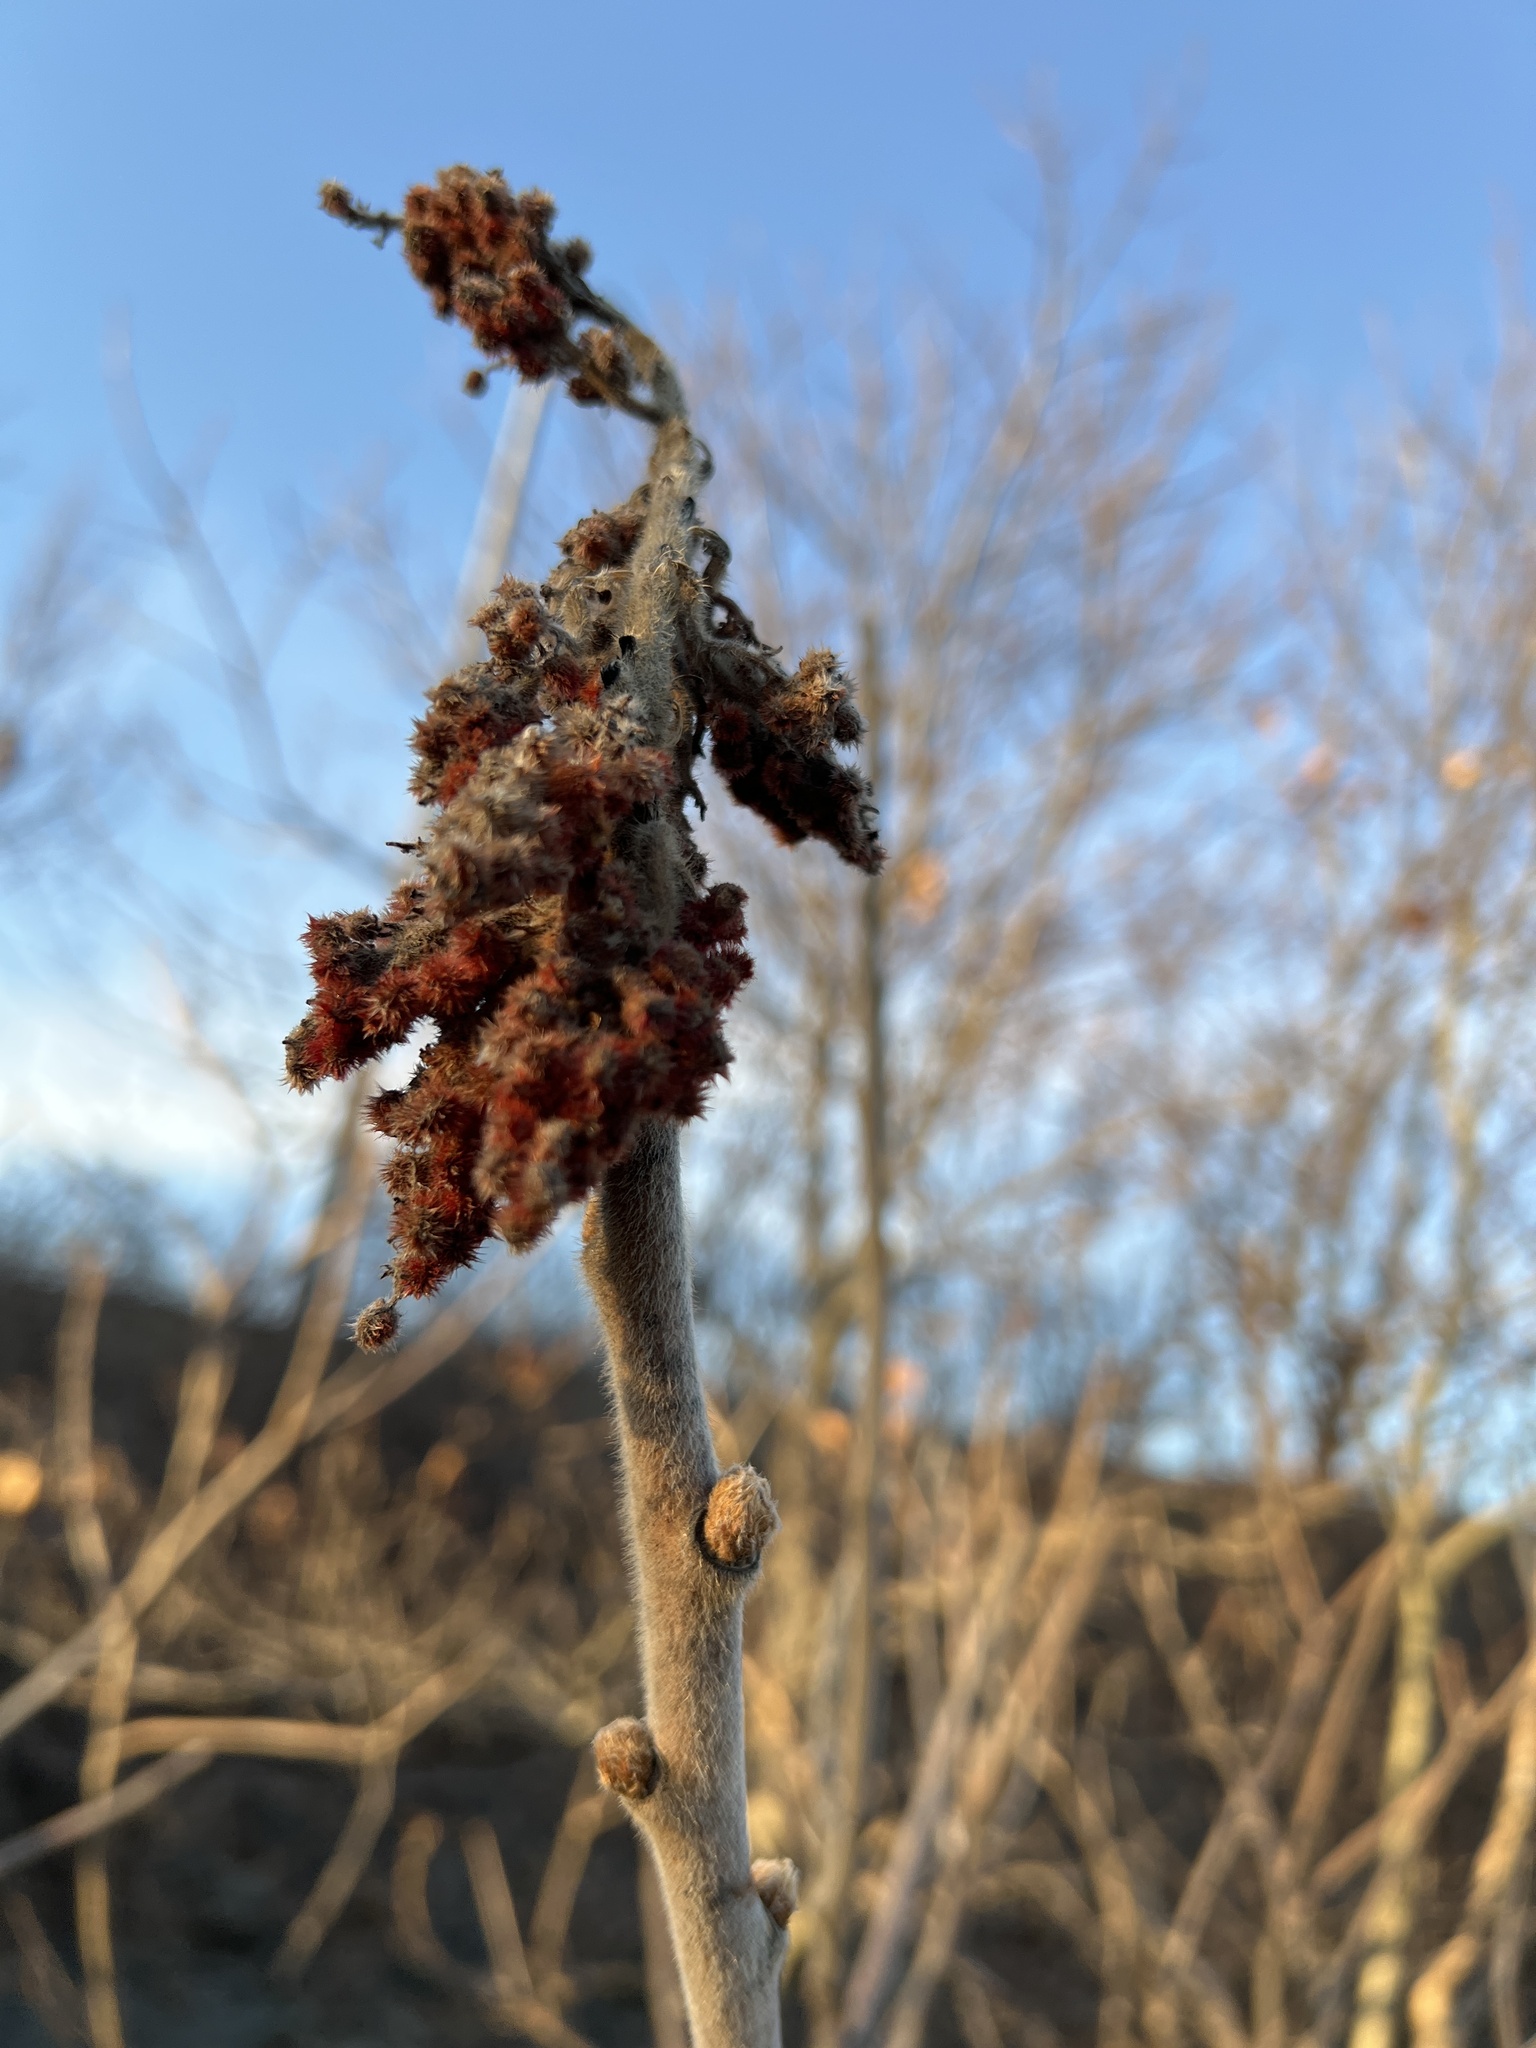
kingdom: Plantae
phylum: Tracheophyta
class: Magnoliopsida
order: Sapindales
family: Anacardiaceae
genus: Rhus
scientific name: Rhus typhina
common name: Staghorn sumac
